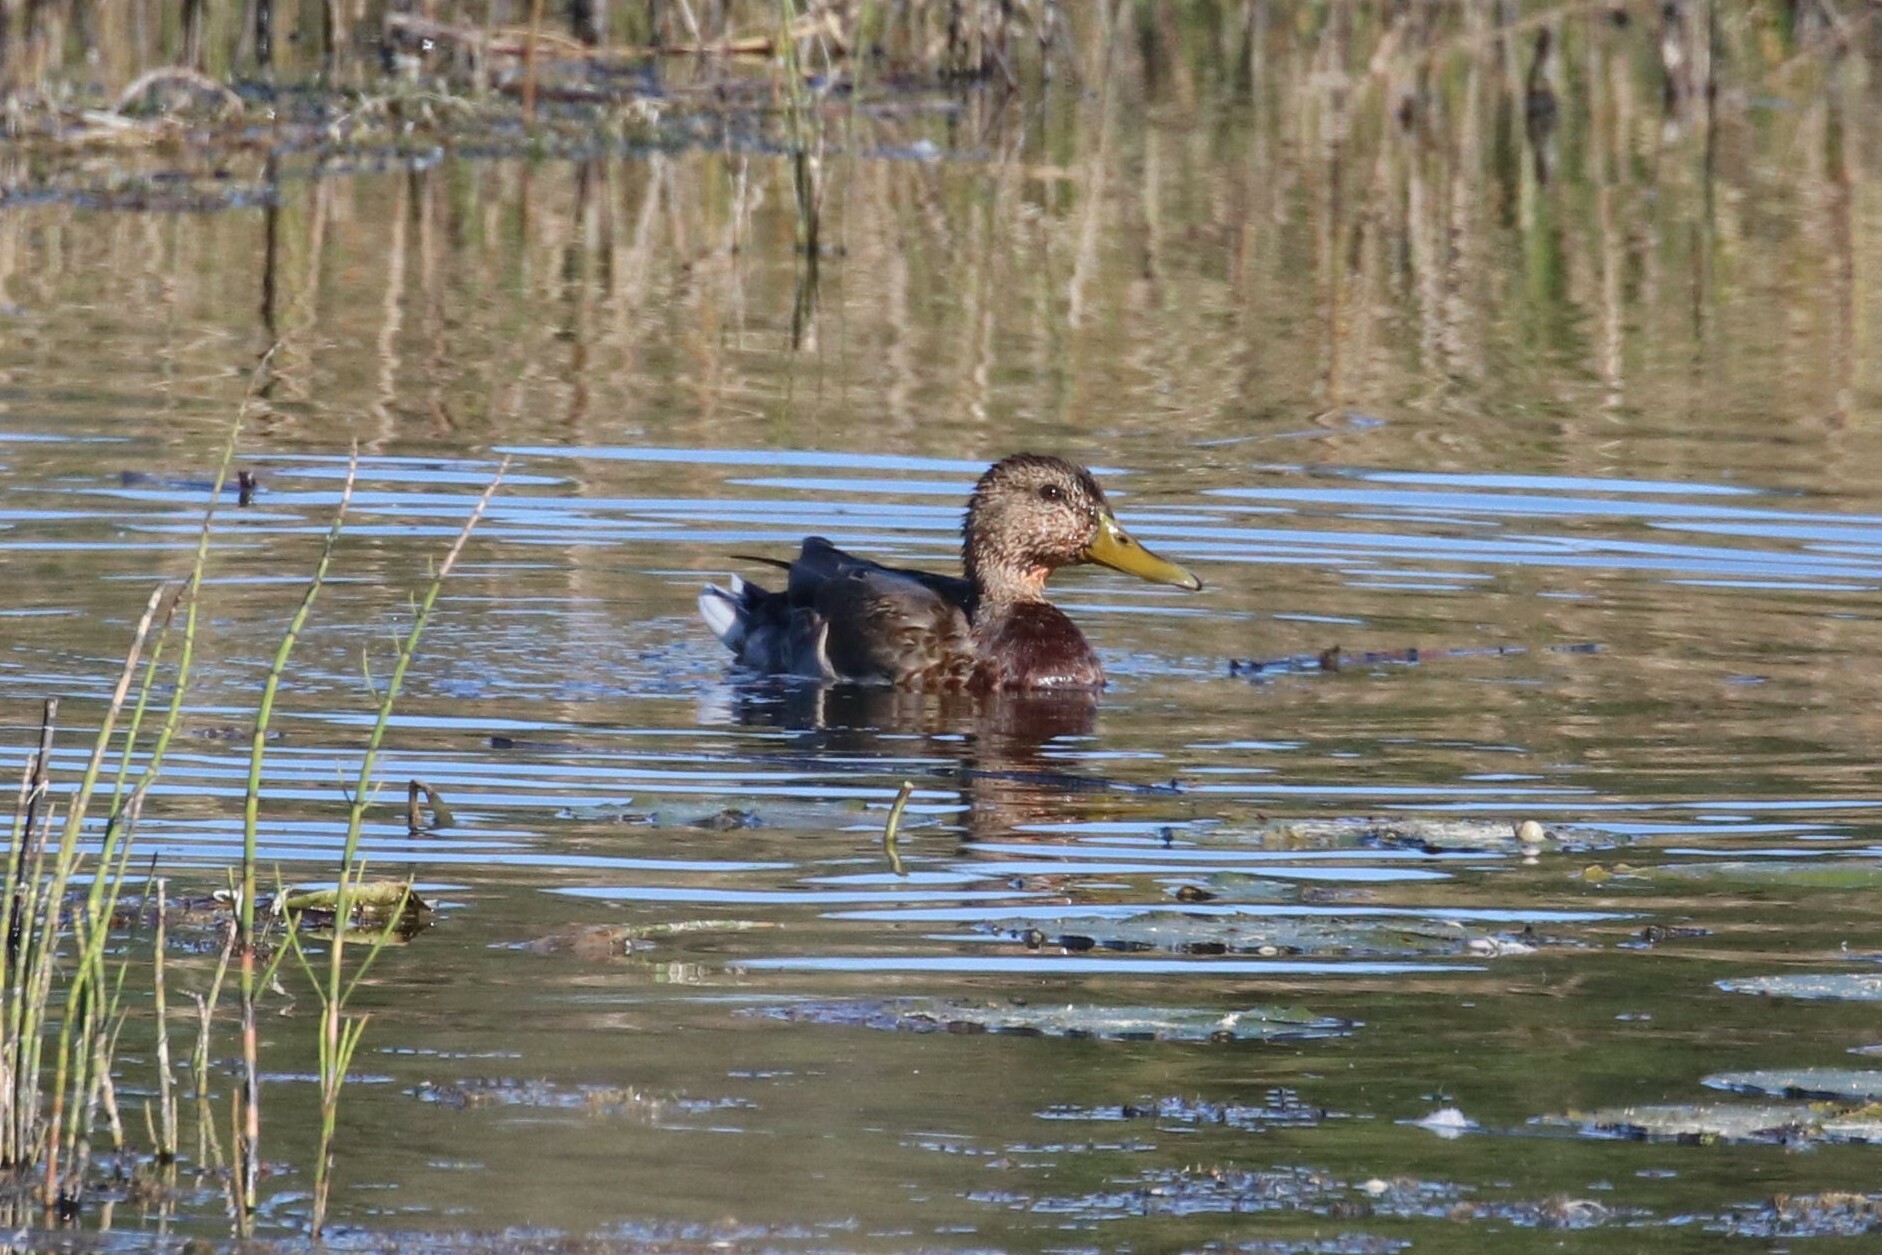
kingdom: Animalia
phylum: Chordata
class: Aves
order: Anseriformes
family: Anatidae
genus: Anas
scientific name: Anas platyrhynchos
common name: Mallard
